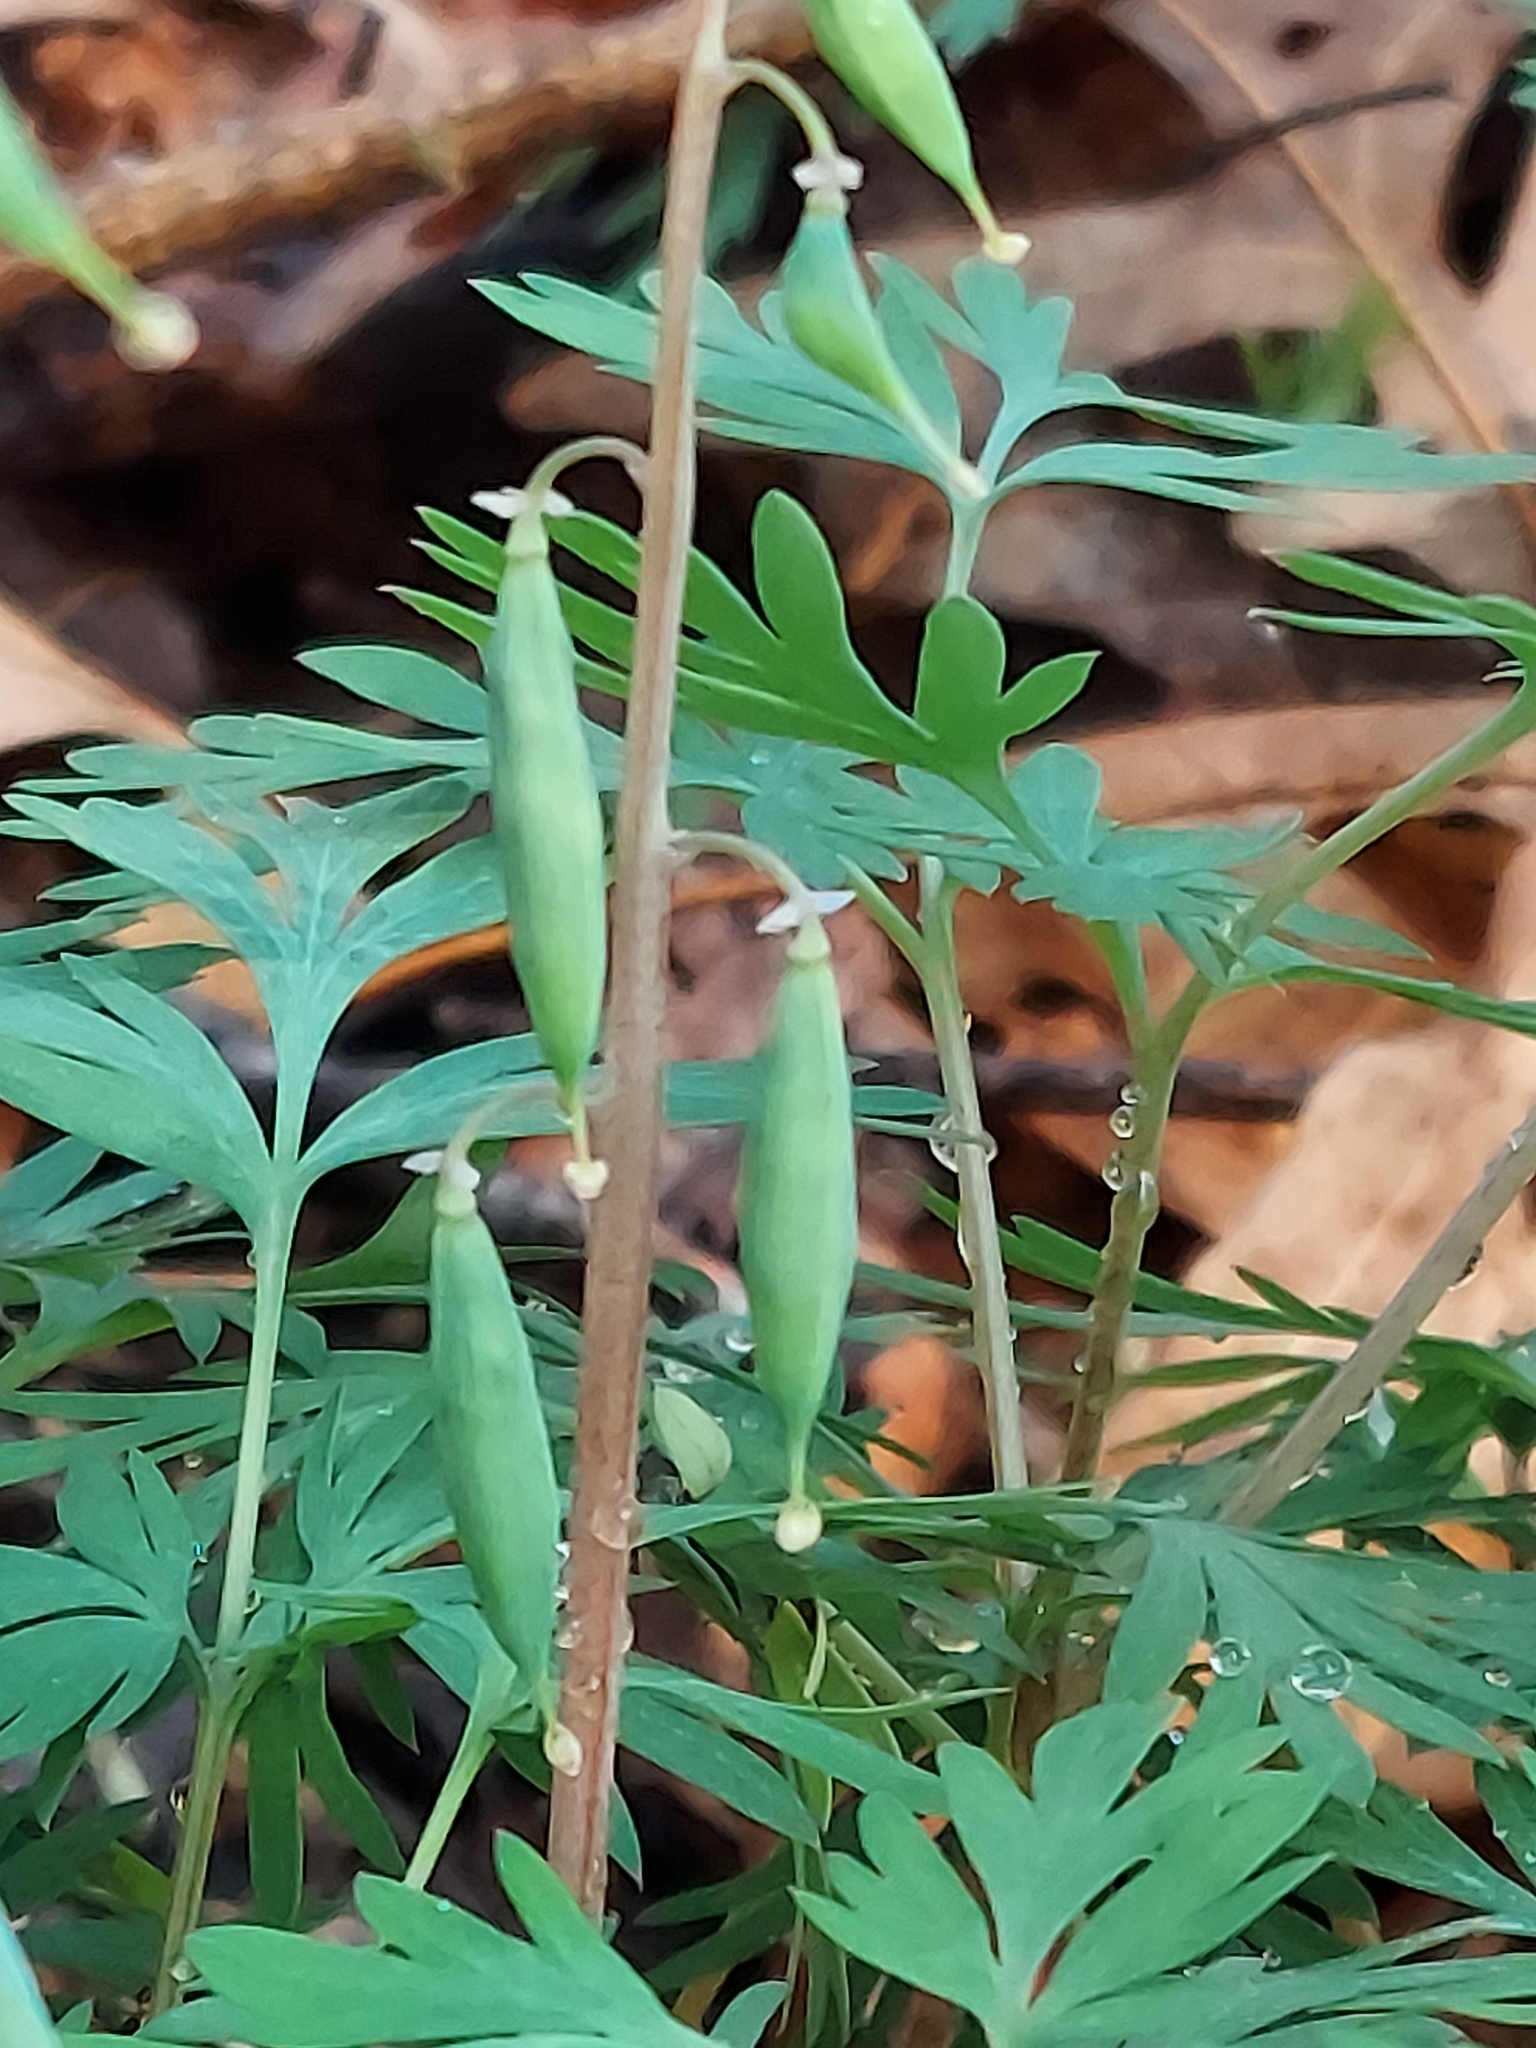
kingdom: Plantae
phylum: Tracheophyta
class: Magnoliopsida
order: Ranunculales
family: Papaveraceae
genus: Dicentra
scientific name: Dicentra cucullaria
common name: Dutchman's breeches
